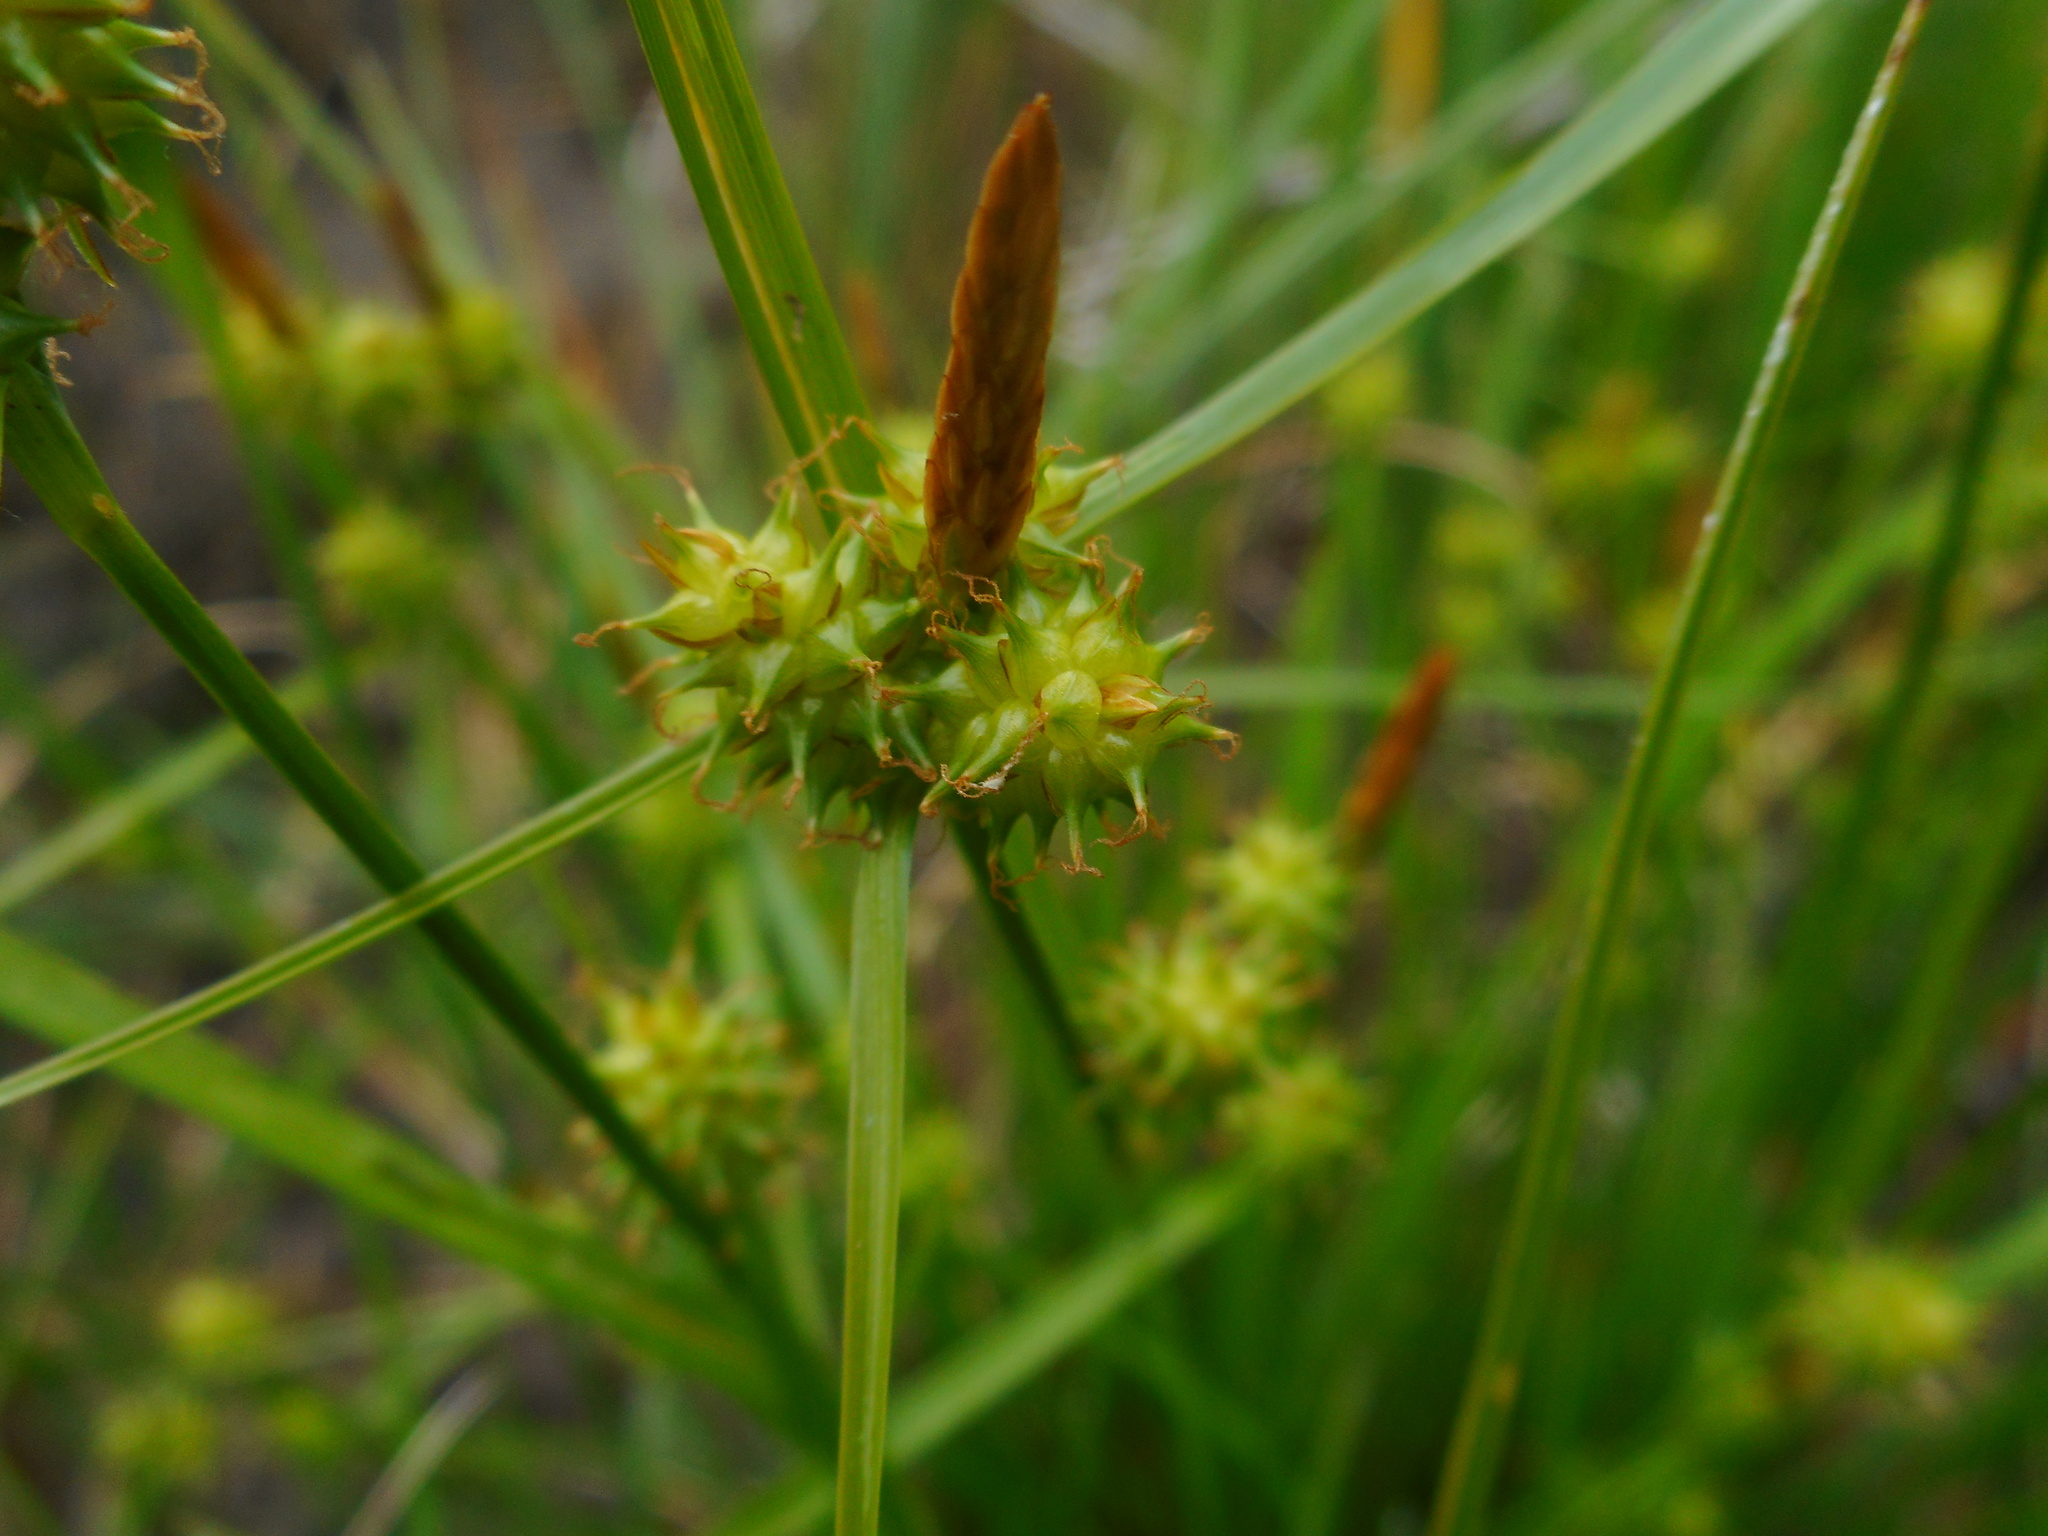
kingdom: Plantae
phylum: Tracheophyta
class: Liliopsida
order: Poales
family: Cyperaceae
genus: Carex
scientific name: Carex
